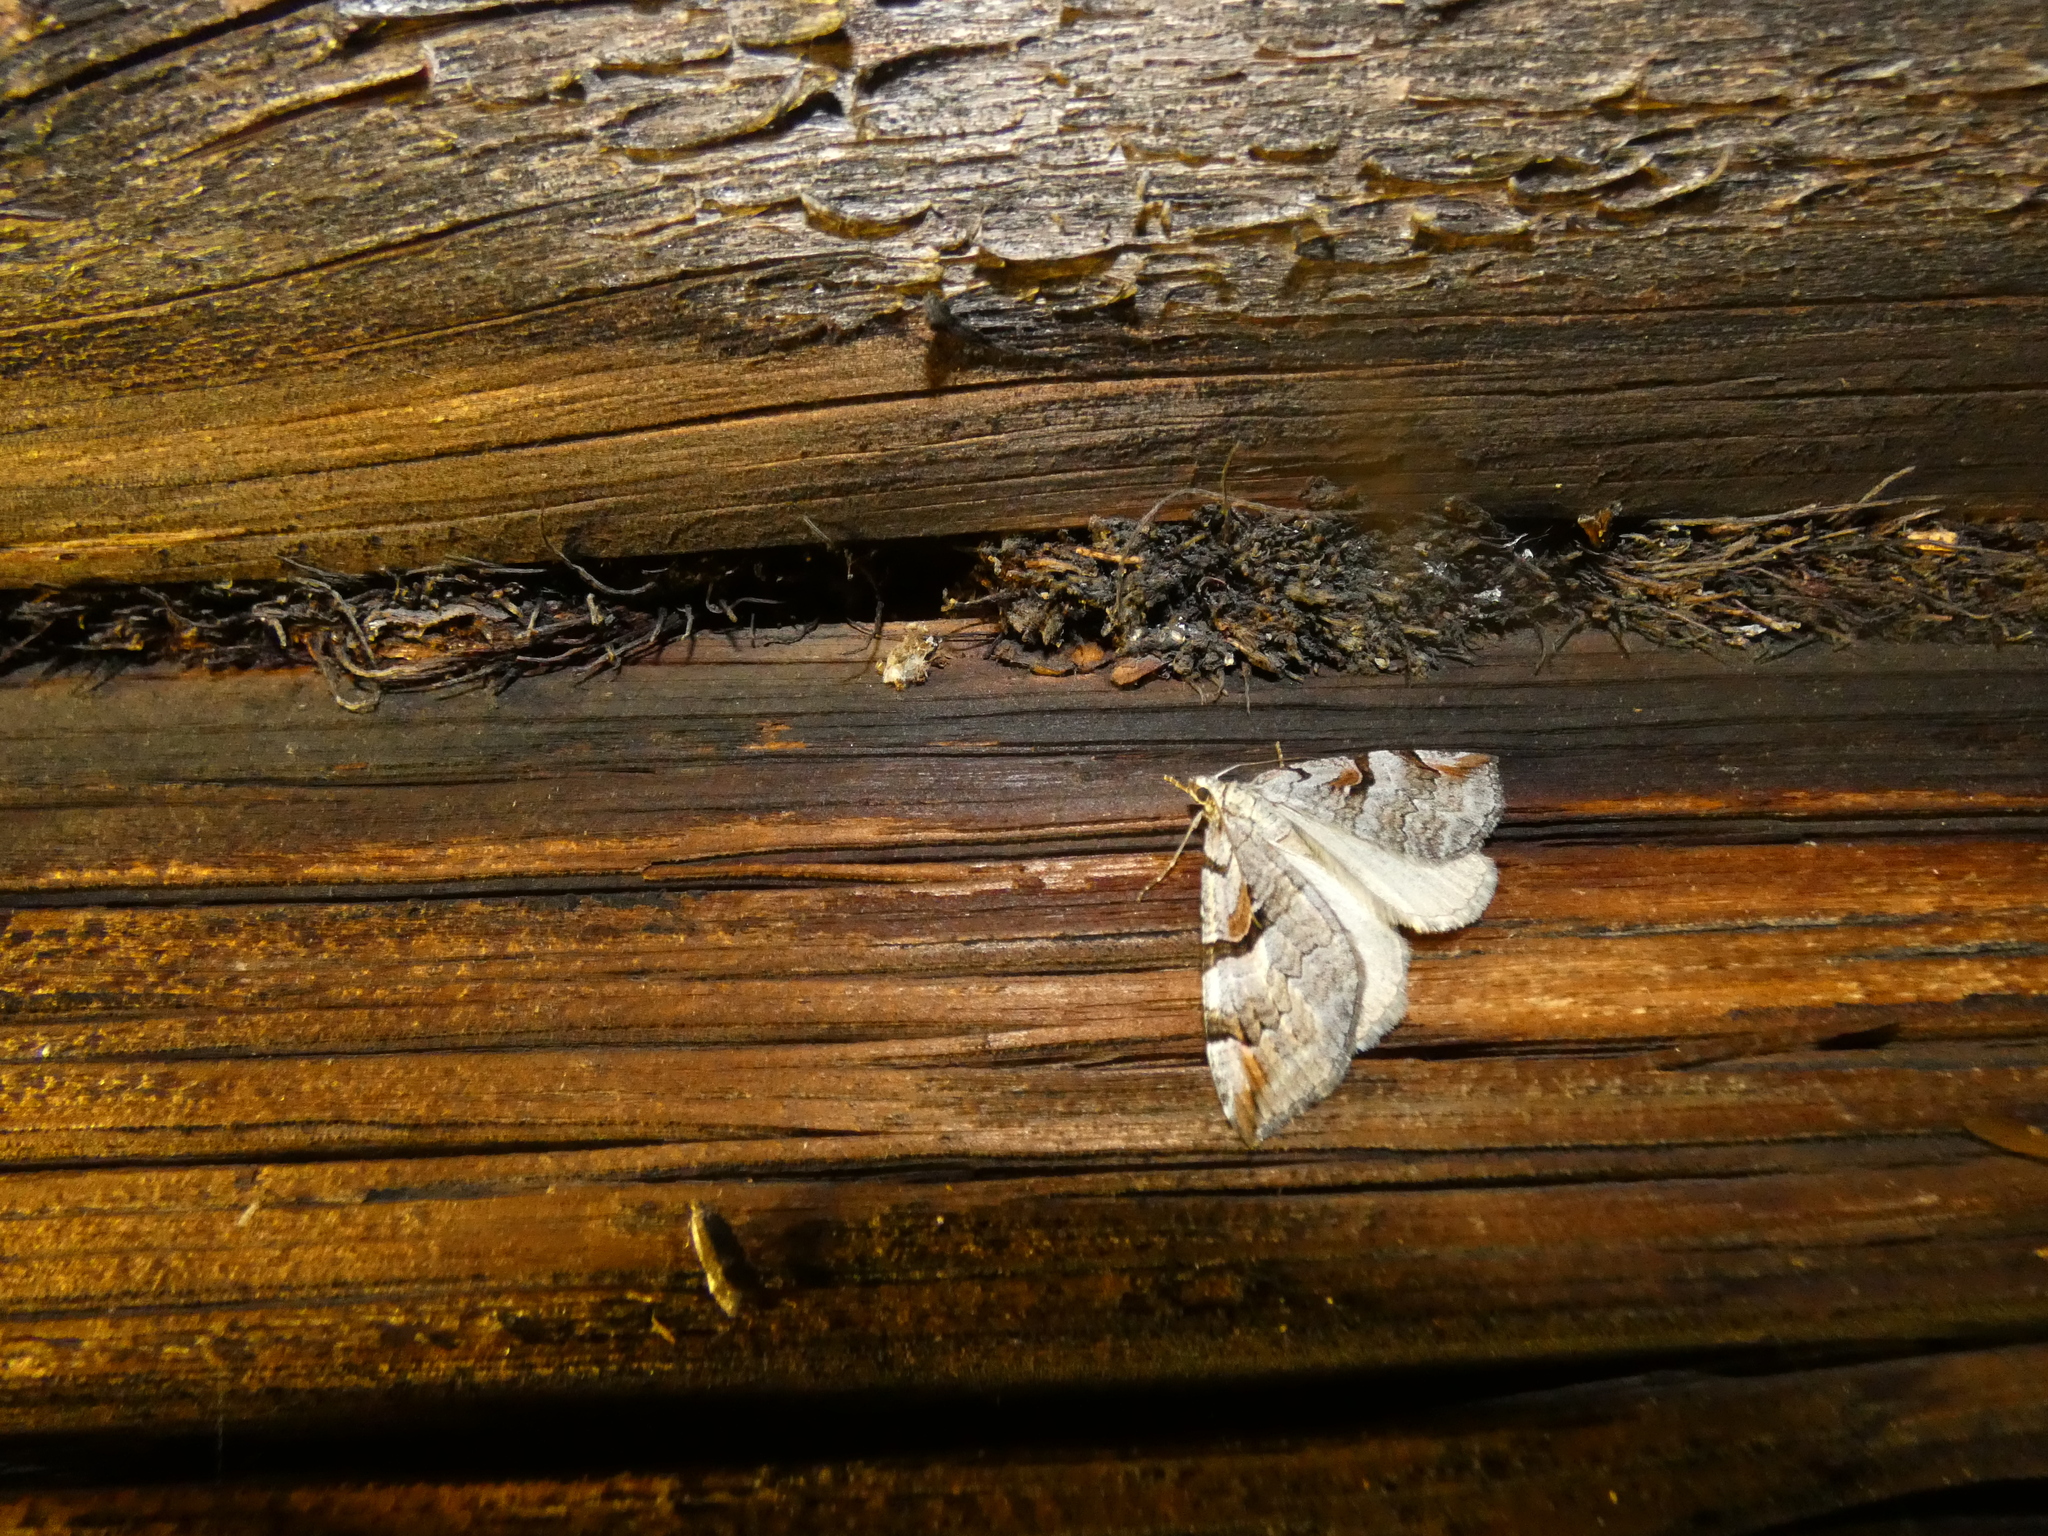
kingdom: Animalia
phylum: Arthropoda
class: Insecta
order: Lepidoptera
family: Geometridae
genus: Aplocera
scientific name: Aplocera praeformata
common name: Purple treble-bar
